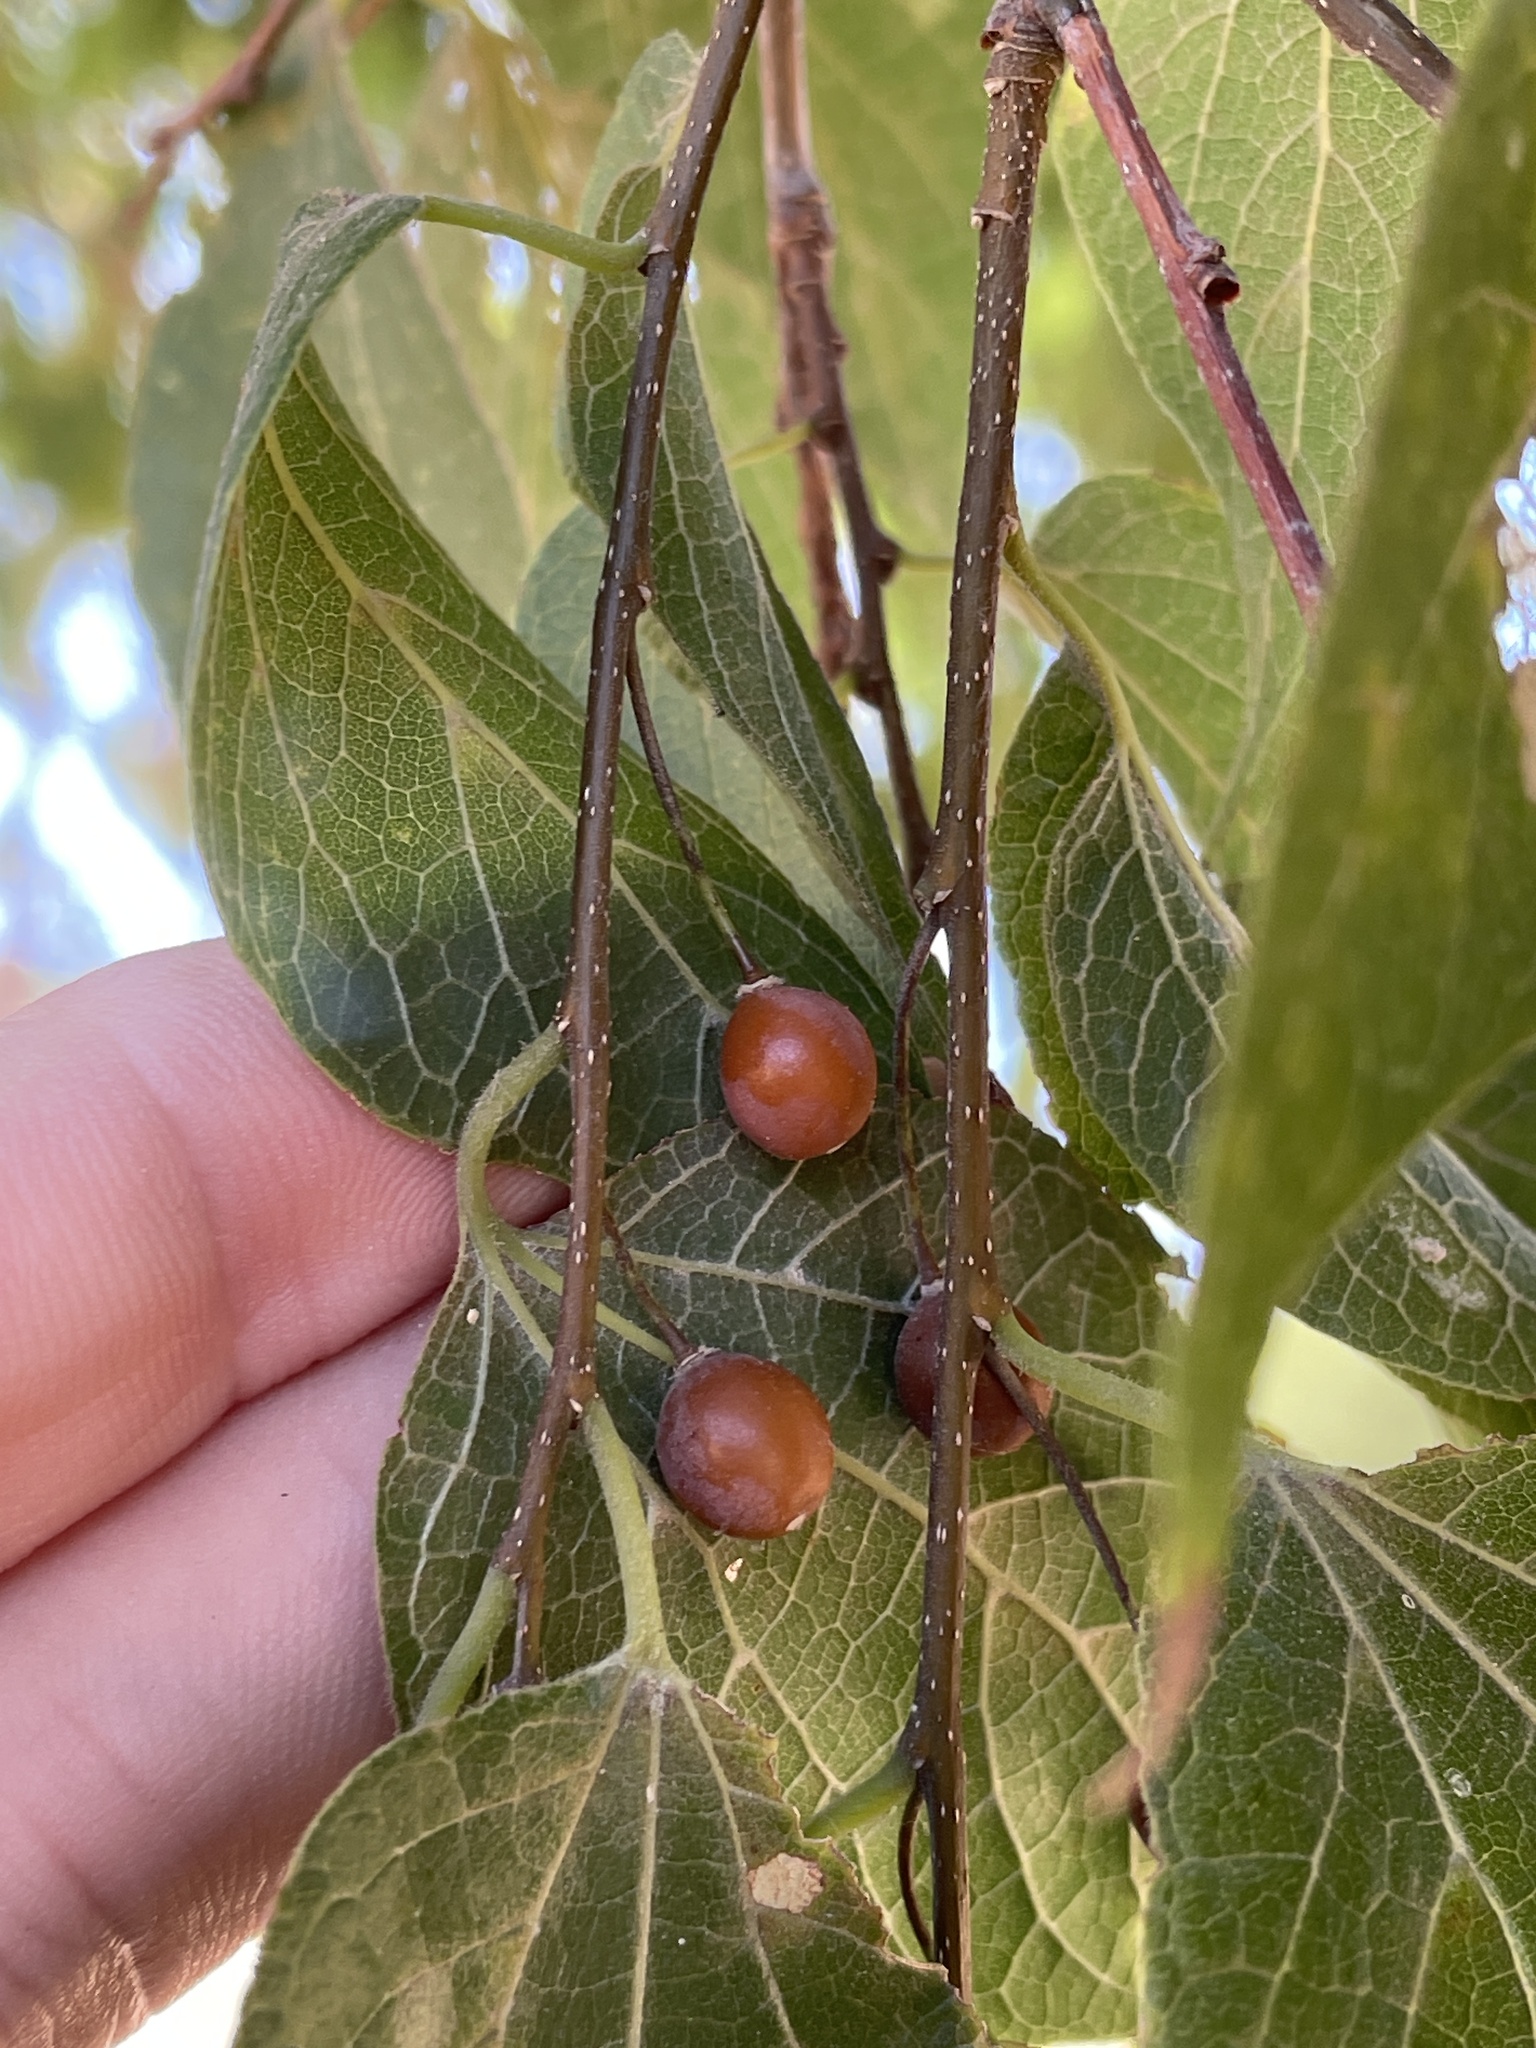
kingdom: Plantae
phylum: Tracheophyta
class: Magnoliopsida
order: Rosales
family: Cannabaceae
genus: Celtis
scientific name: Celtis laevigata
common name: Sugarberry
